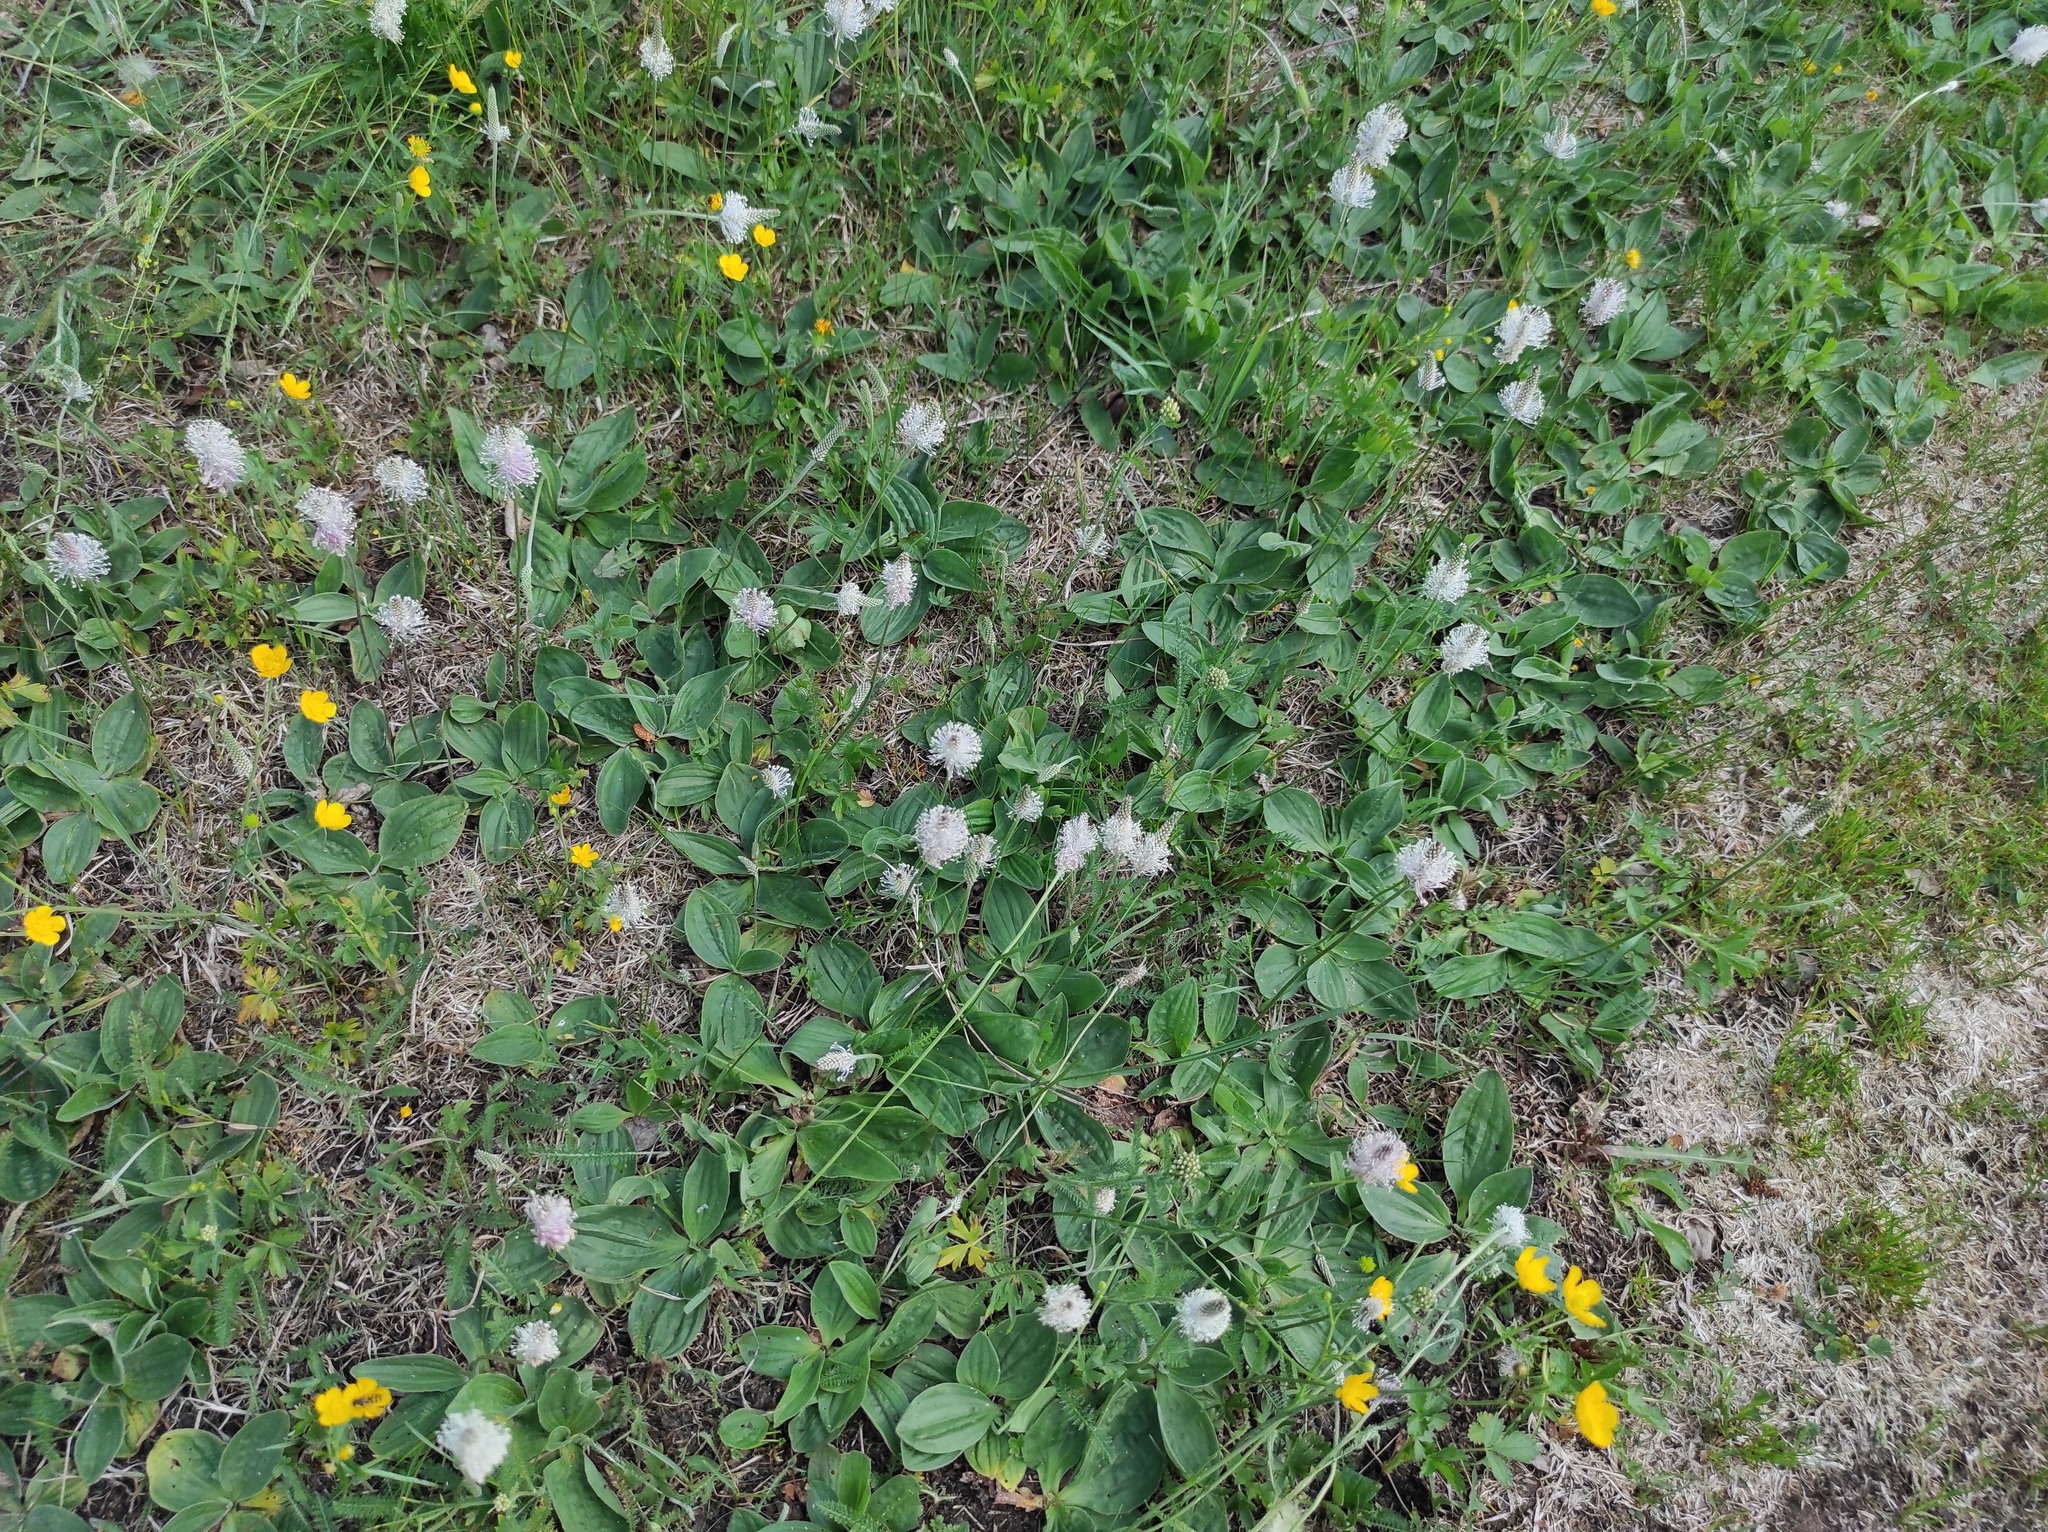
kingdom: Plantae
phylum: Tracheophyta
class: Magnoliopsida
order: Lamiales
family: Plantaginaceae
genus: Plantago
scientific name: Plantago media
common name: Hoary plantain
